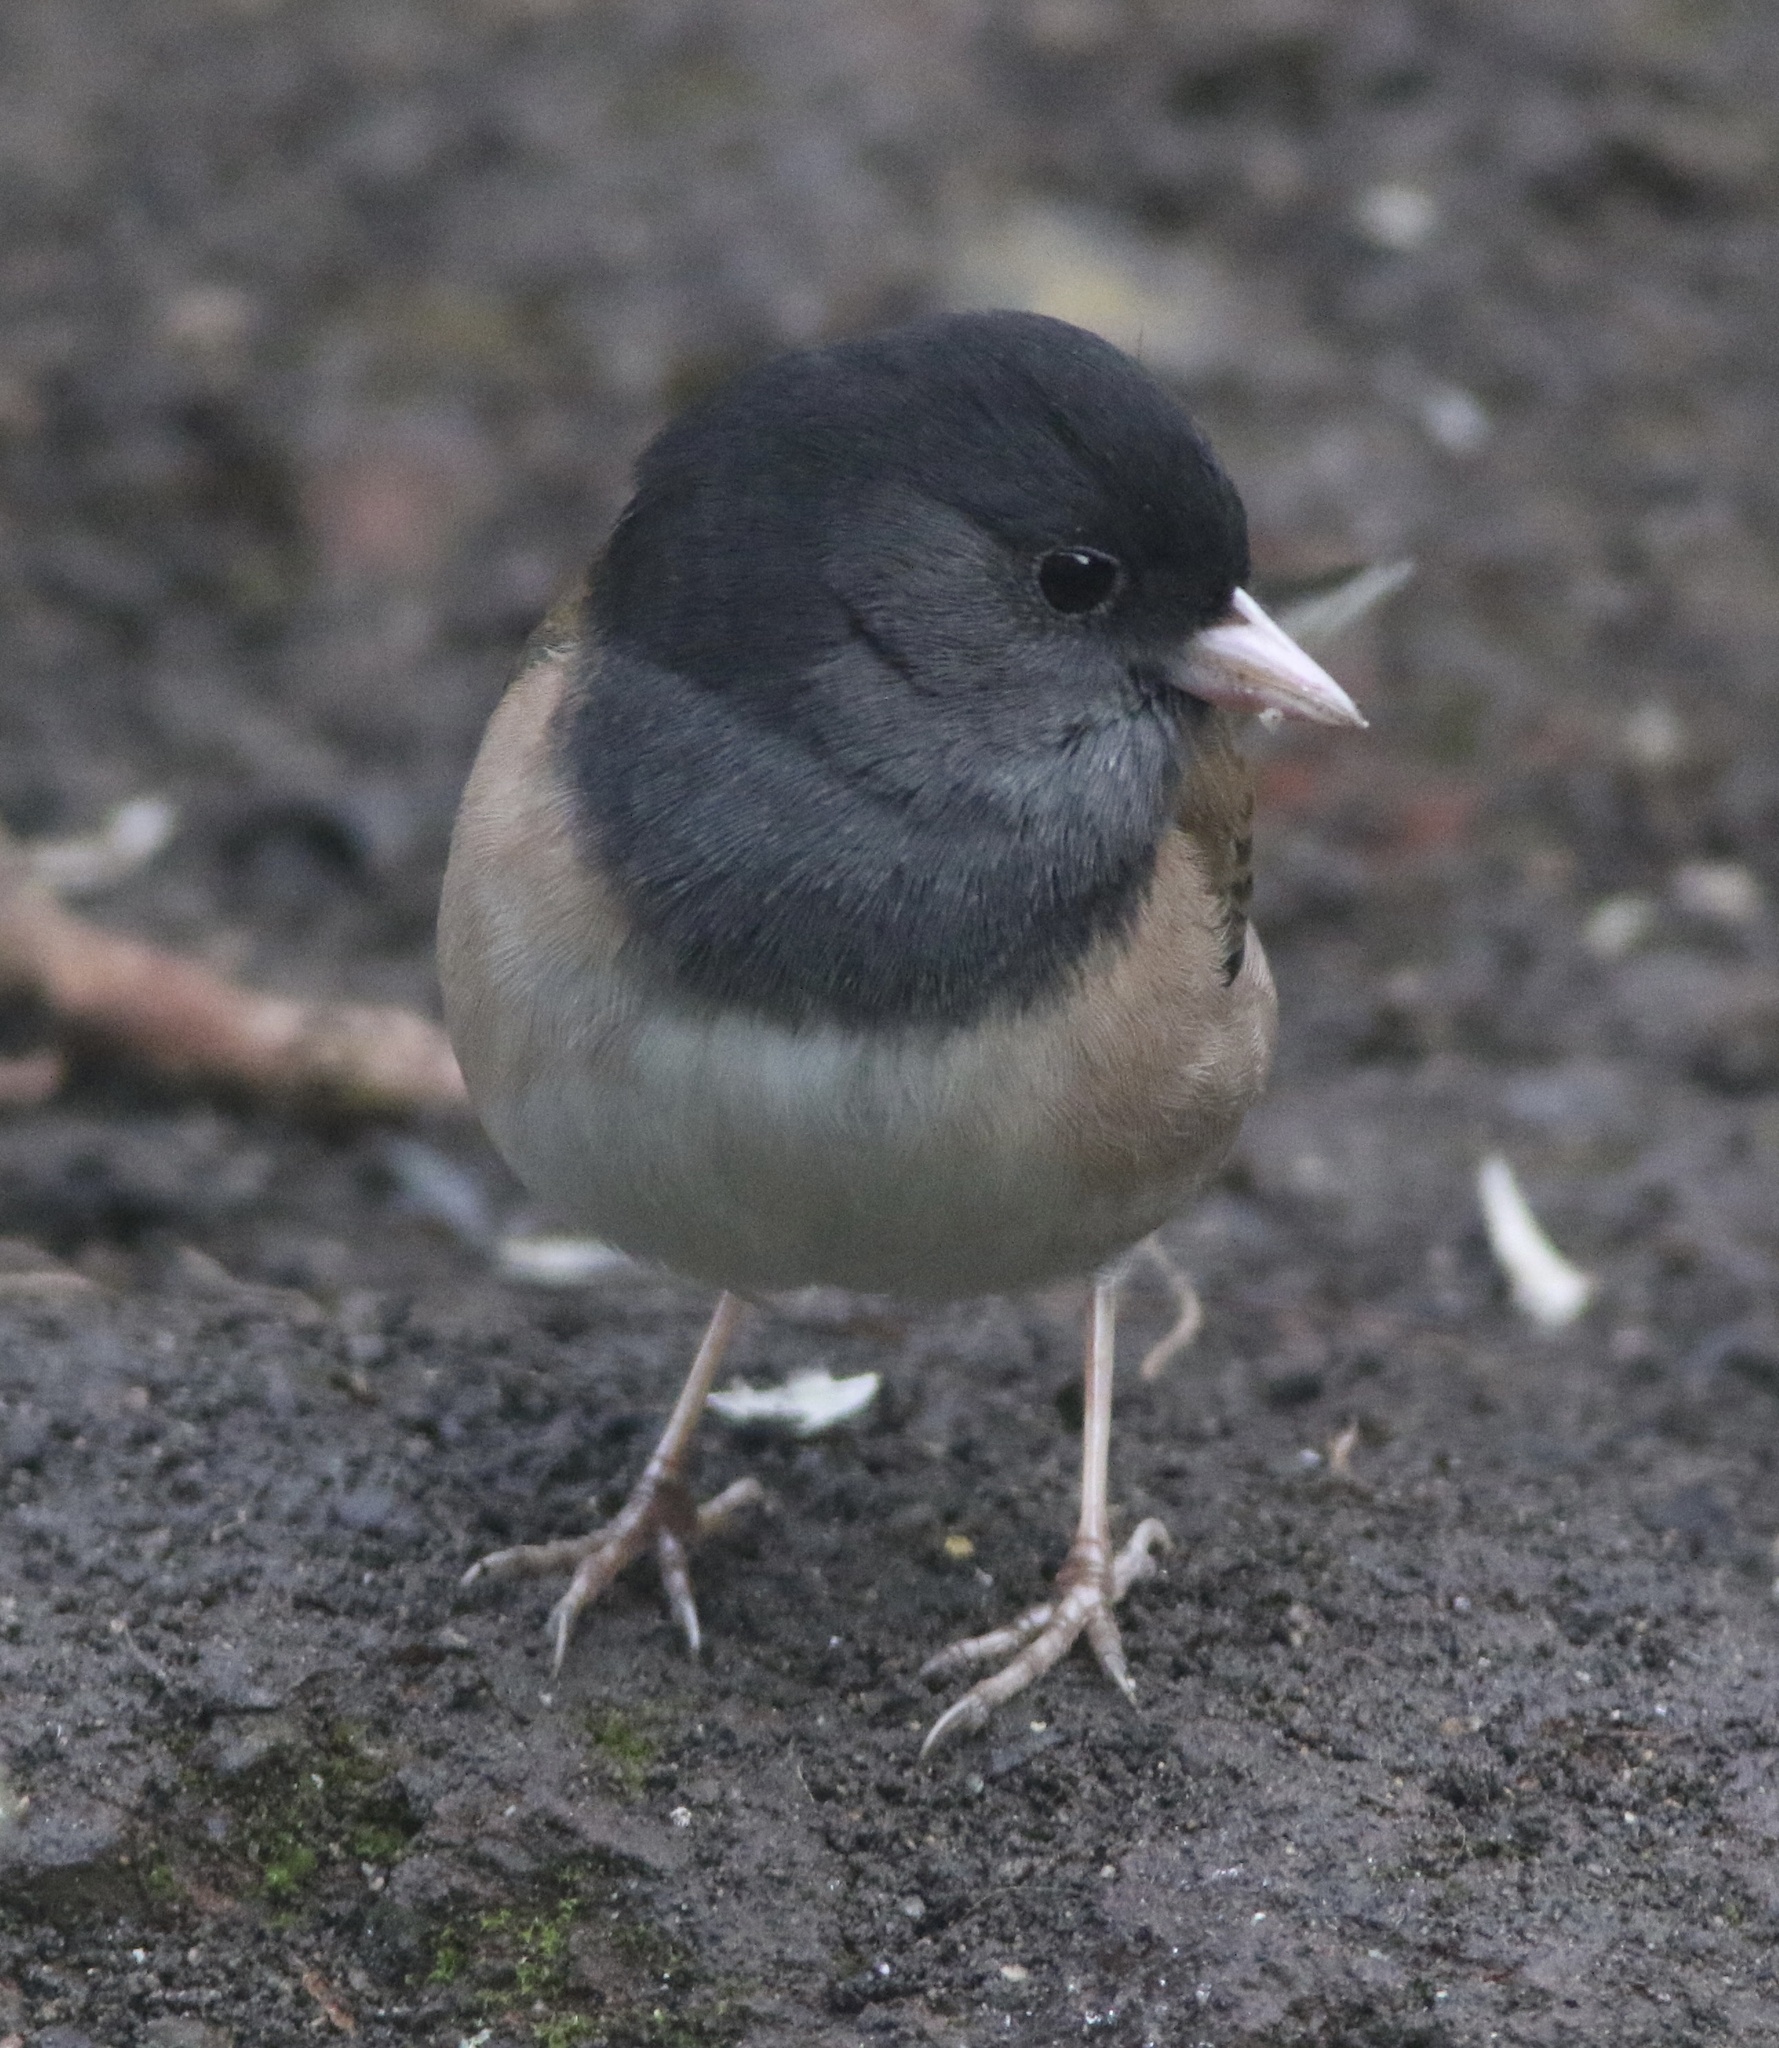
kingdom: Animalia
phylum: Chordata
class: Aves
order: Passeriformes
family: Passerellidae
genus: Junco
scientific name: Junco hyemalis
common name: Dark-eyed junco
